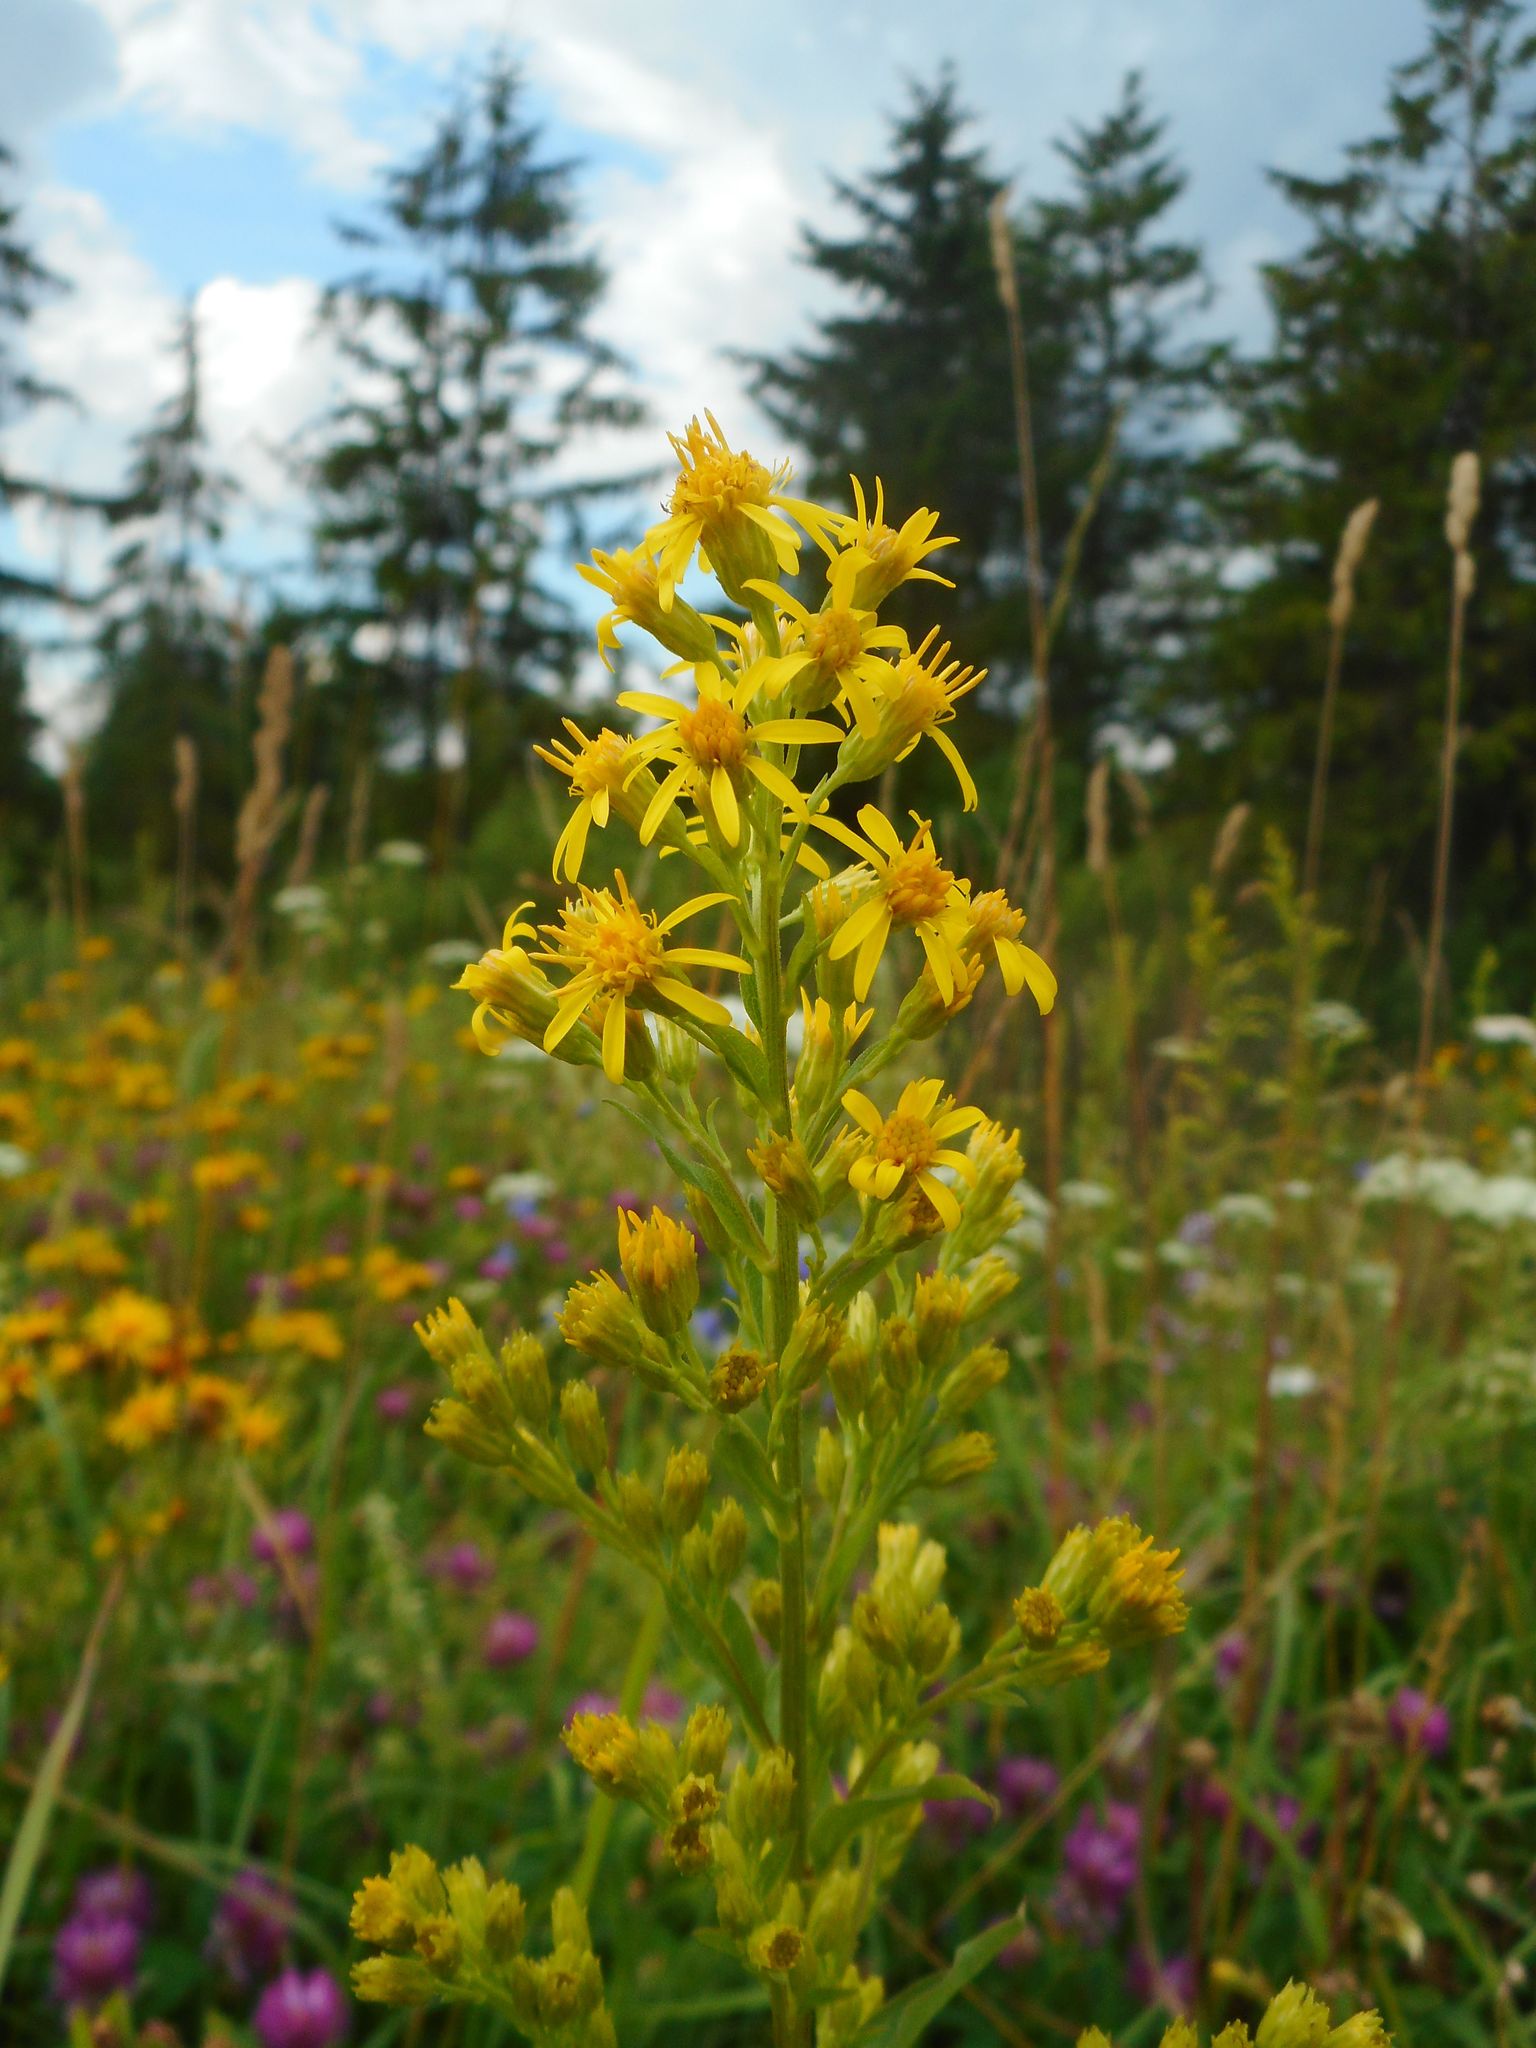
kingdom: Plantae
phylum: Tracheophyta
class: Magnoliopsida
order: Asterales
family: Asteraceae
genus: Solidago
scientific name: Solidago virgaurea
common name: Goldenrod
